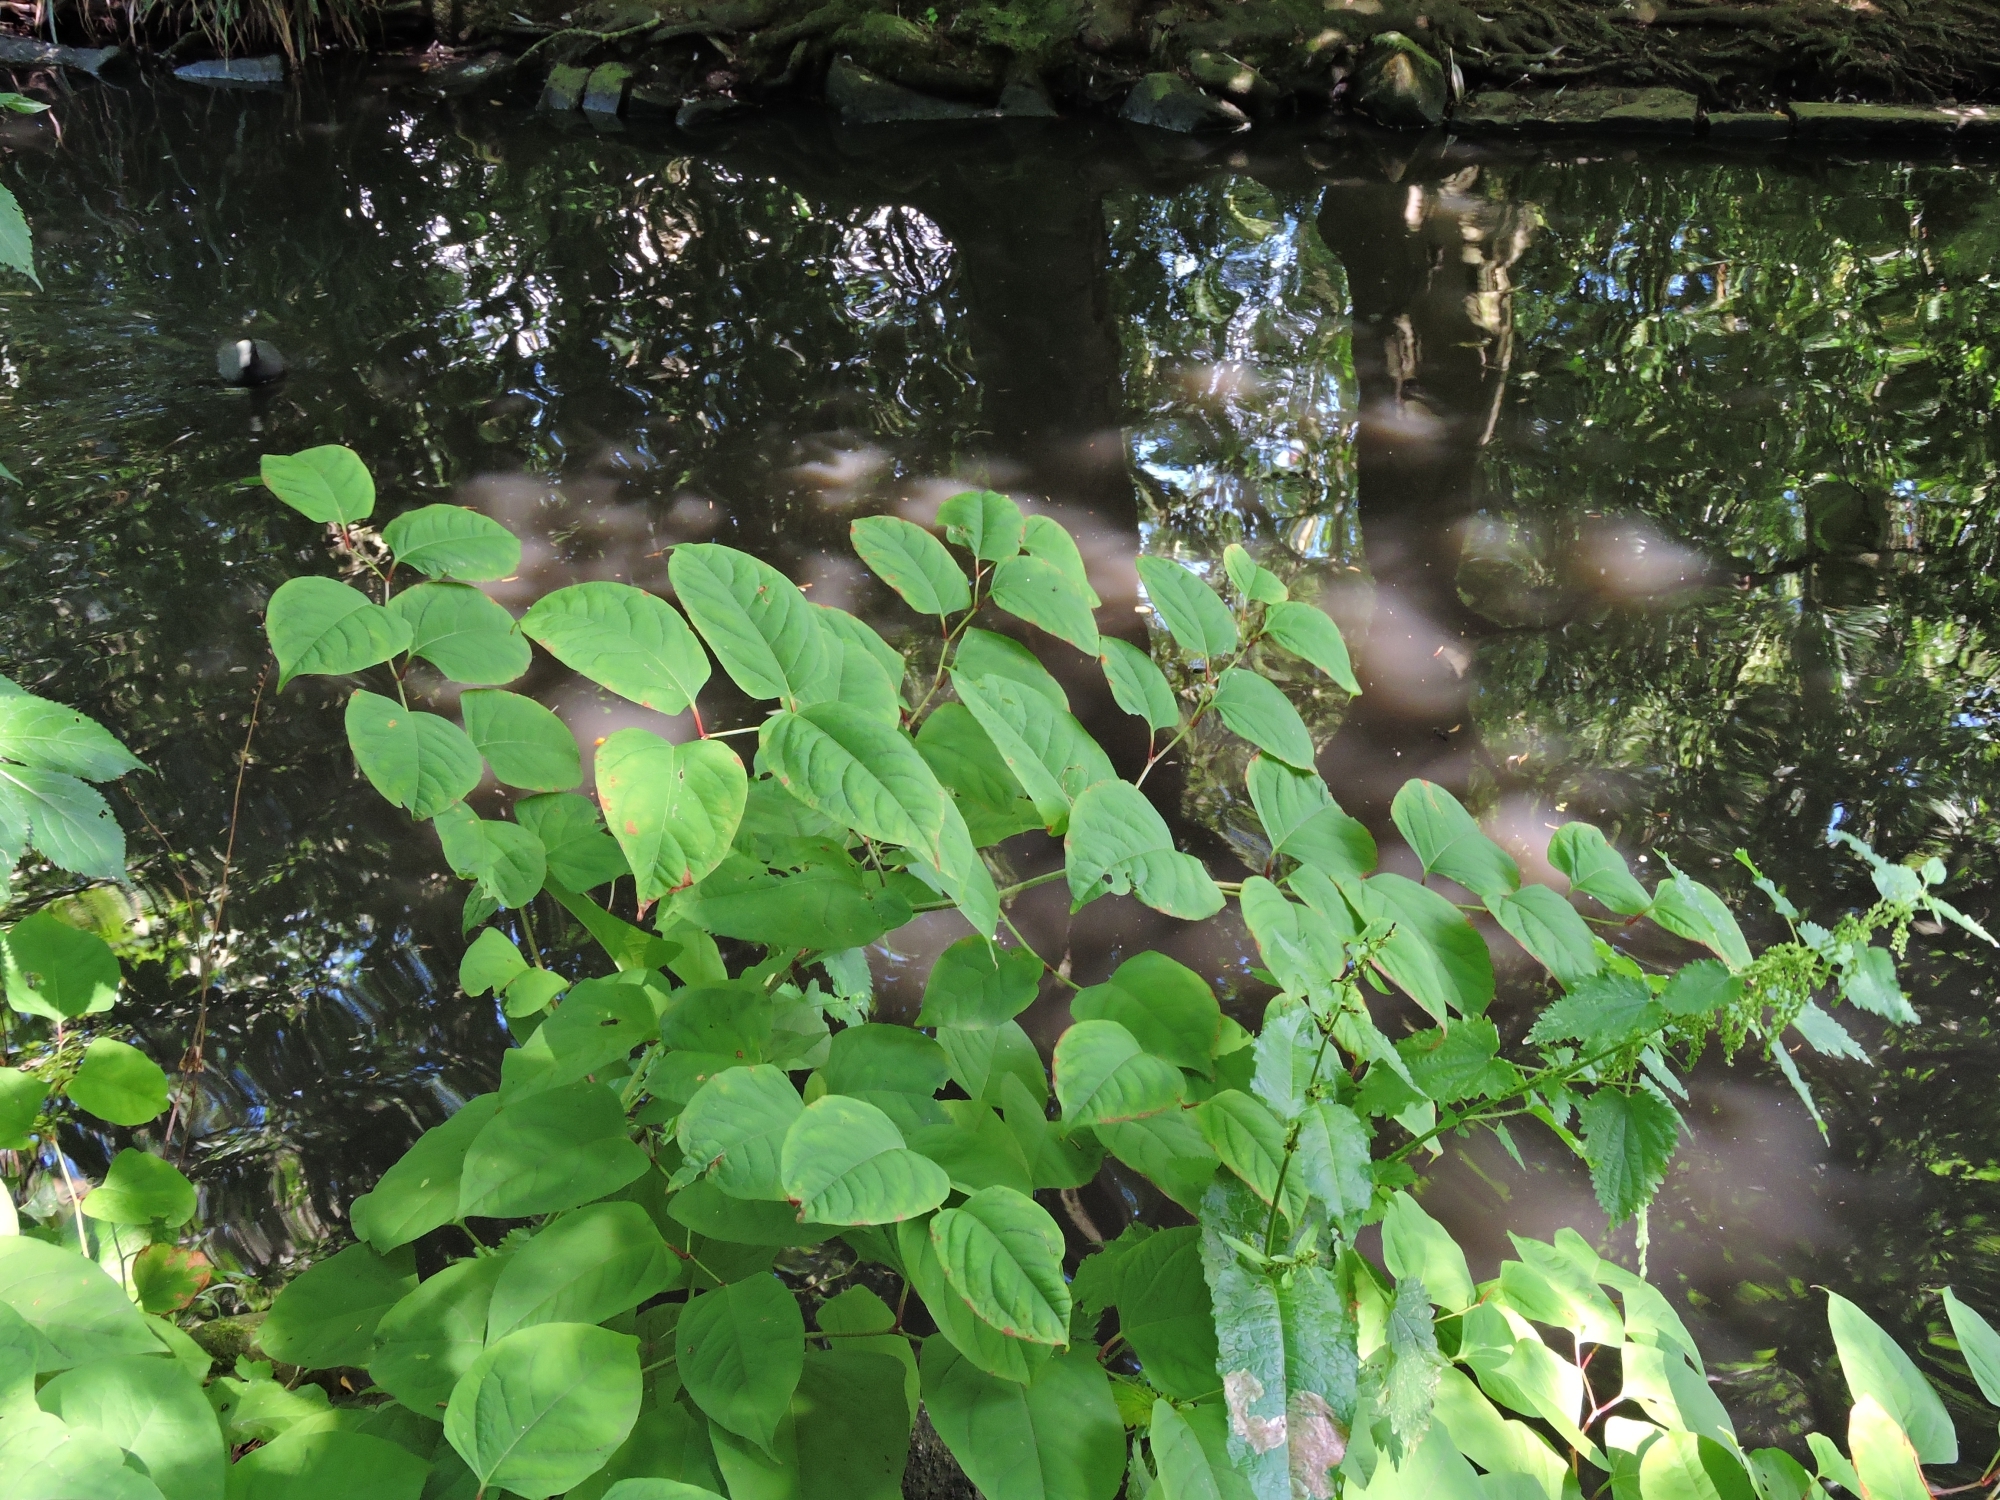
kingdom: Plantae
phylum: Tracheophyta
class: Magnoliopsida
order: Caryophyllales
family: Polygonaceae
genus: Reynoutria
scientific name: Reynoutria japonica
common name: Japanese knotweed
